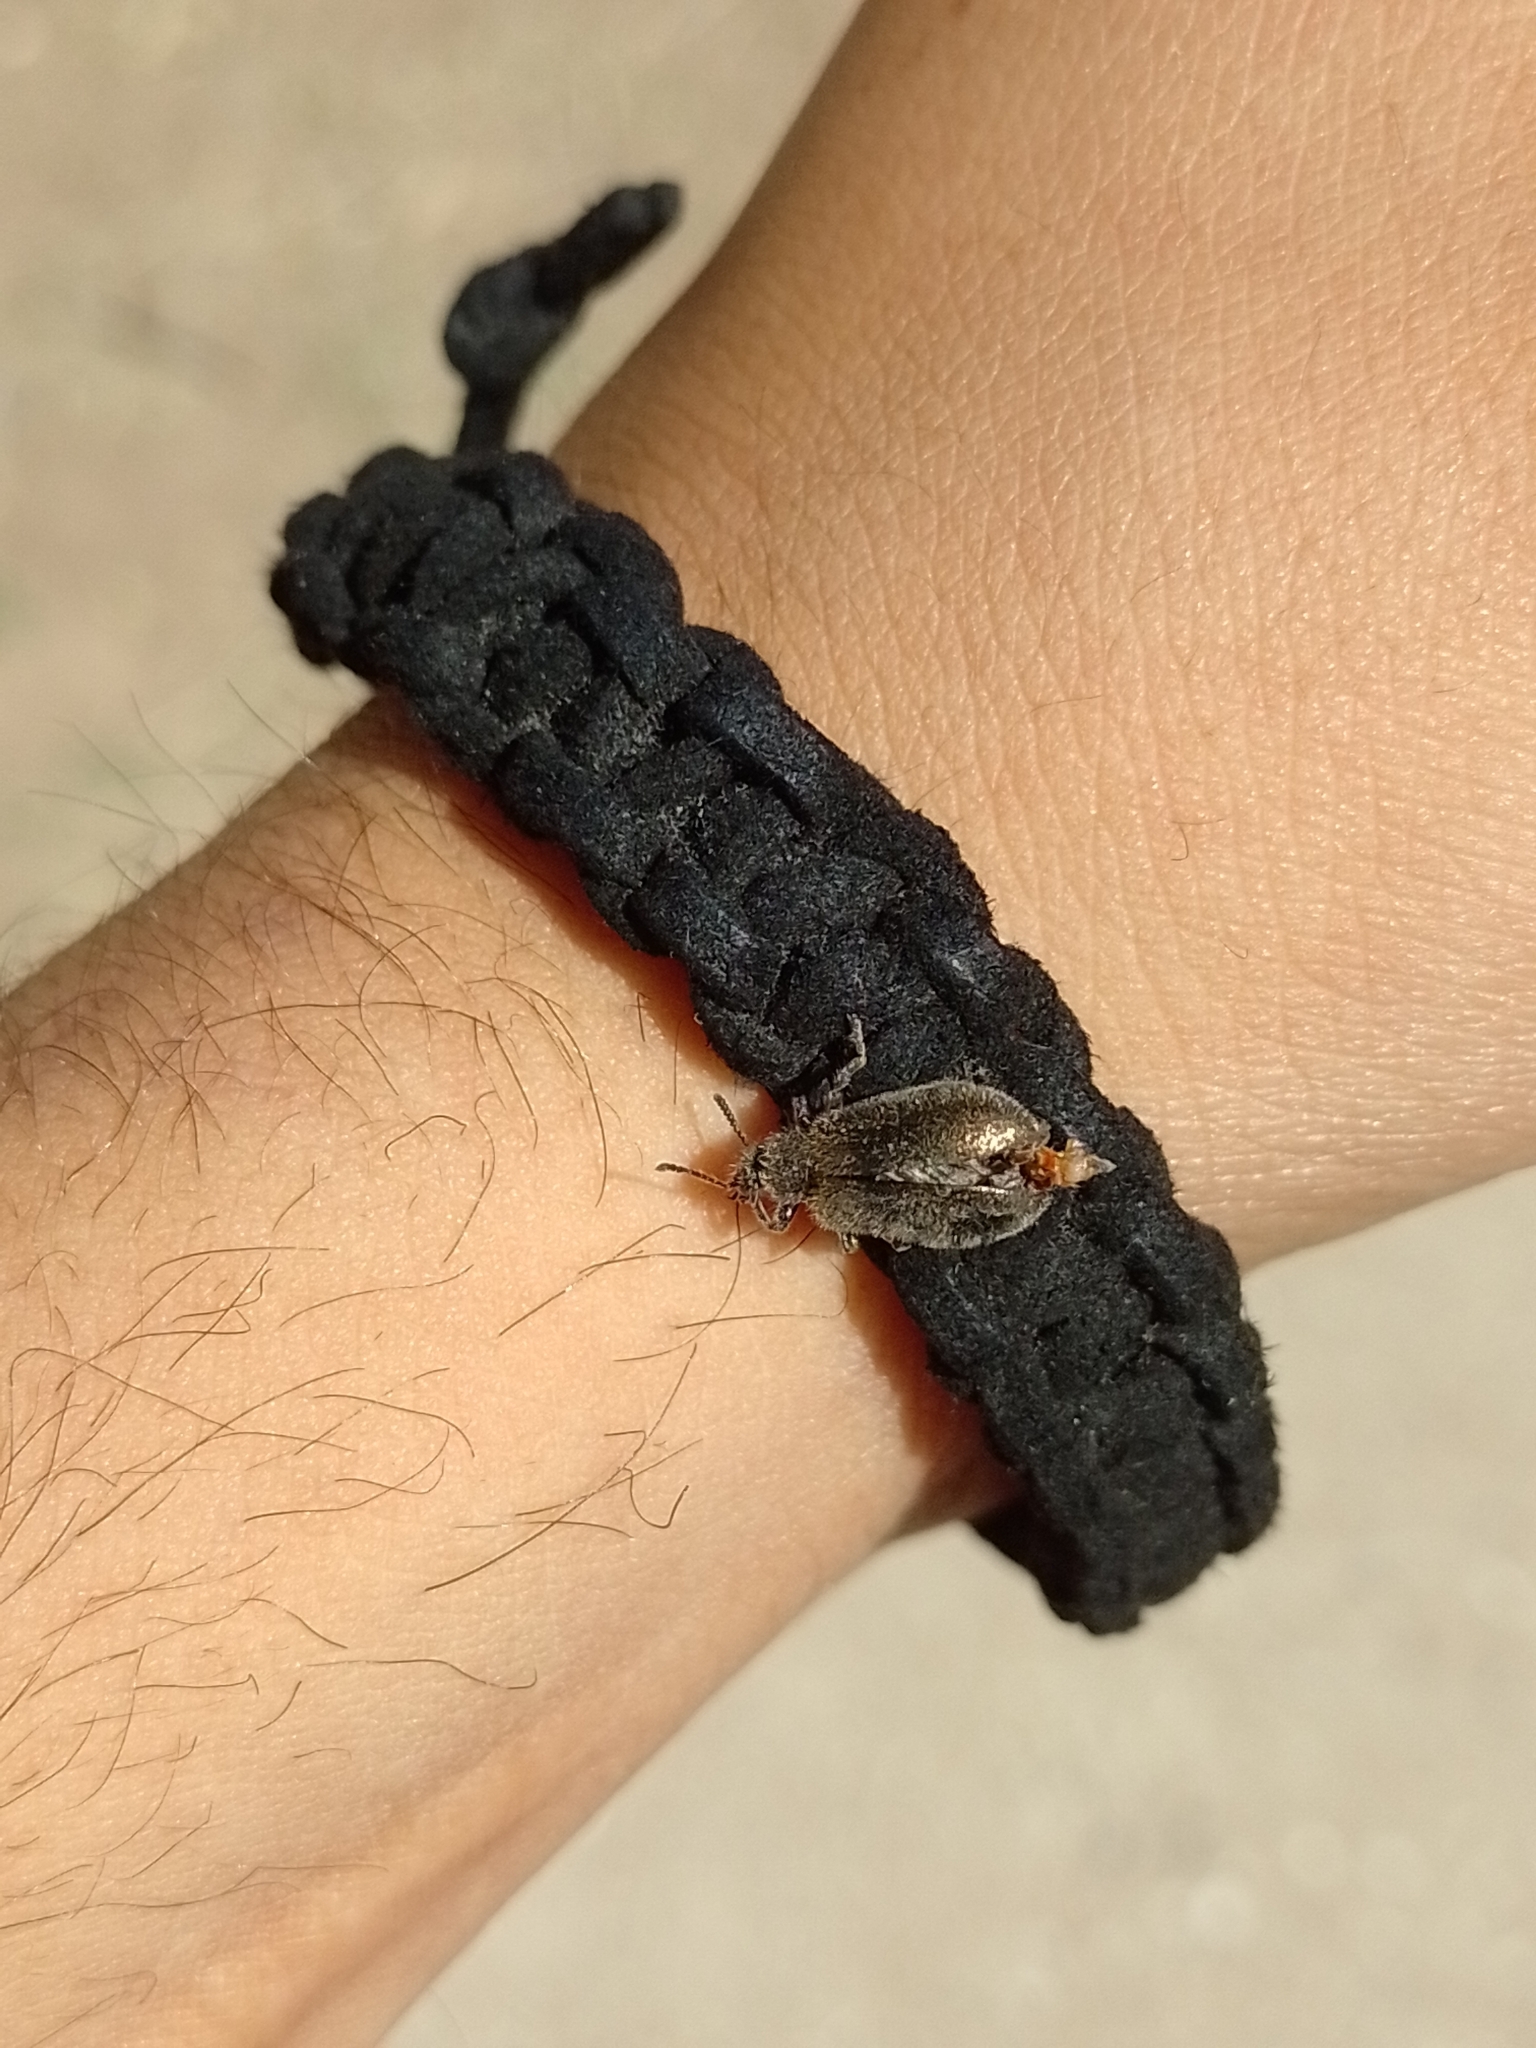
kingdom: Animalia
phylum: Arthropoda
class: Insecta
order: Coleoptera
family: Tenebrionidae
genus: Lagria
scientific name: Lagria villosa
